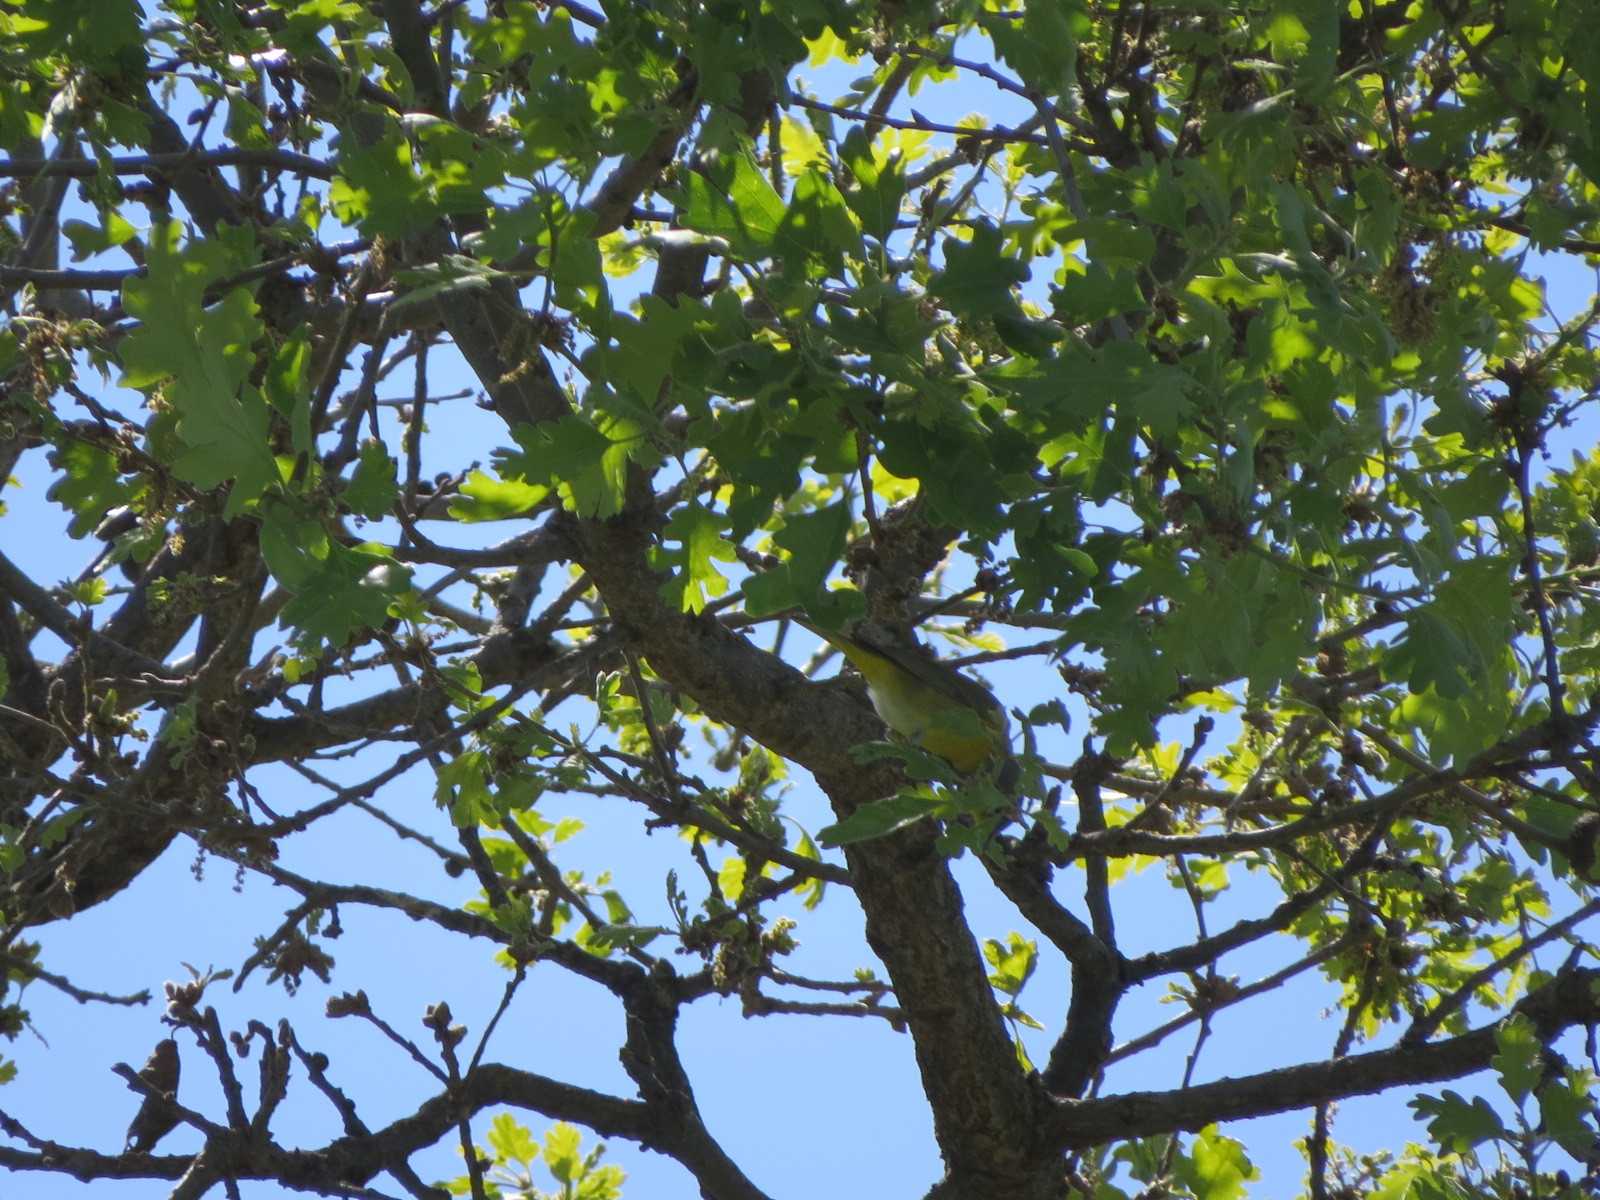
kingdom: Animalia
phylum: Chordata
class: Aves
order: Passeriformes
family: Parulidae
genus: Leiothlypis
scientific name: Leiothlypis ruficapilla
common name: Nashville warbler
